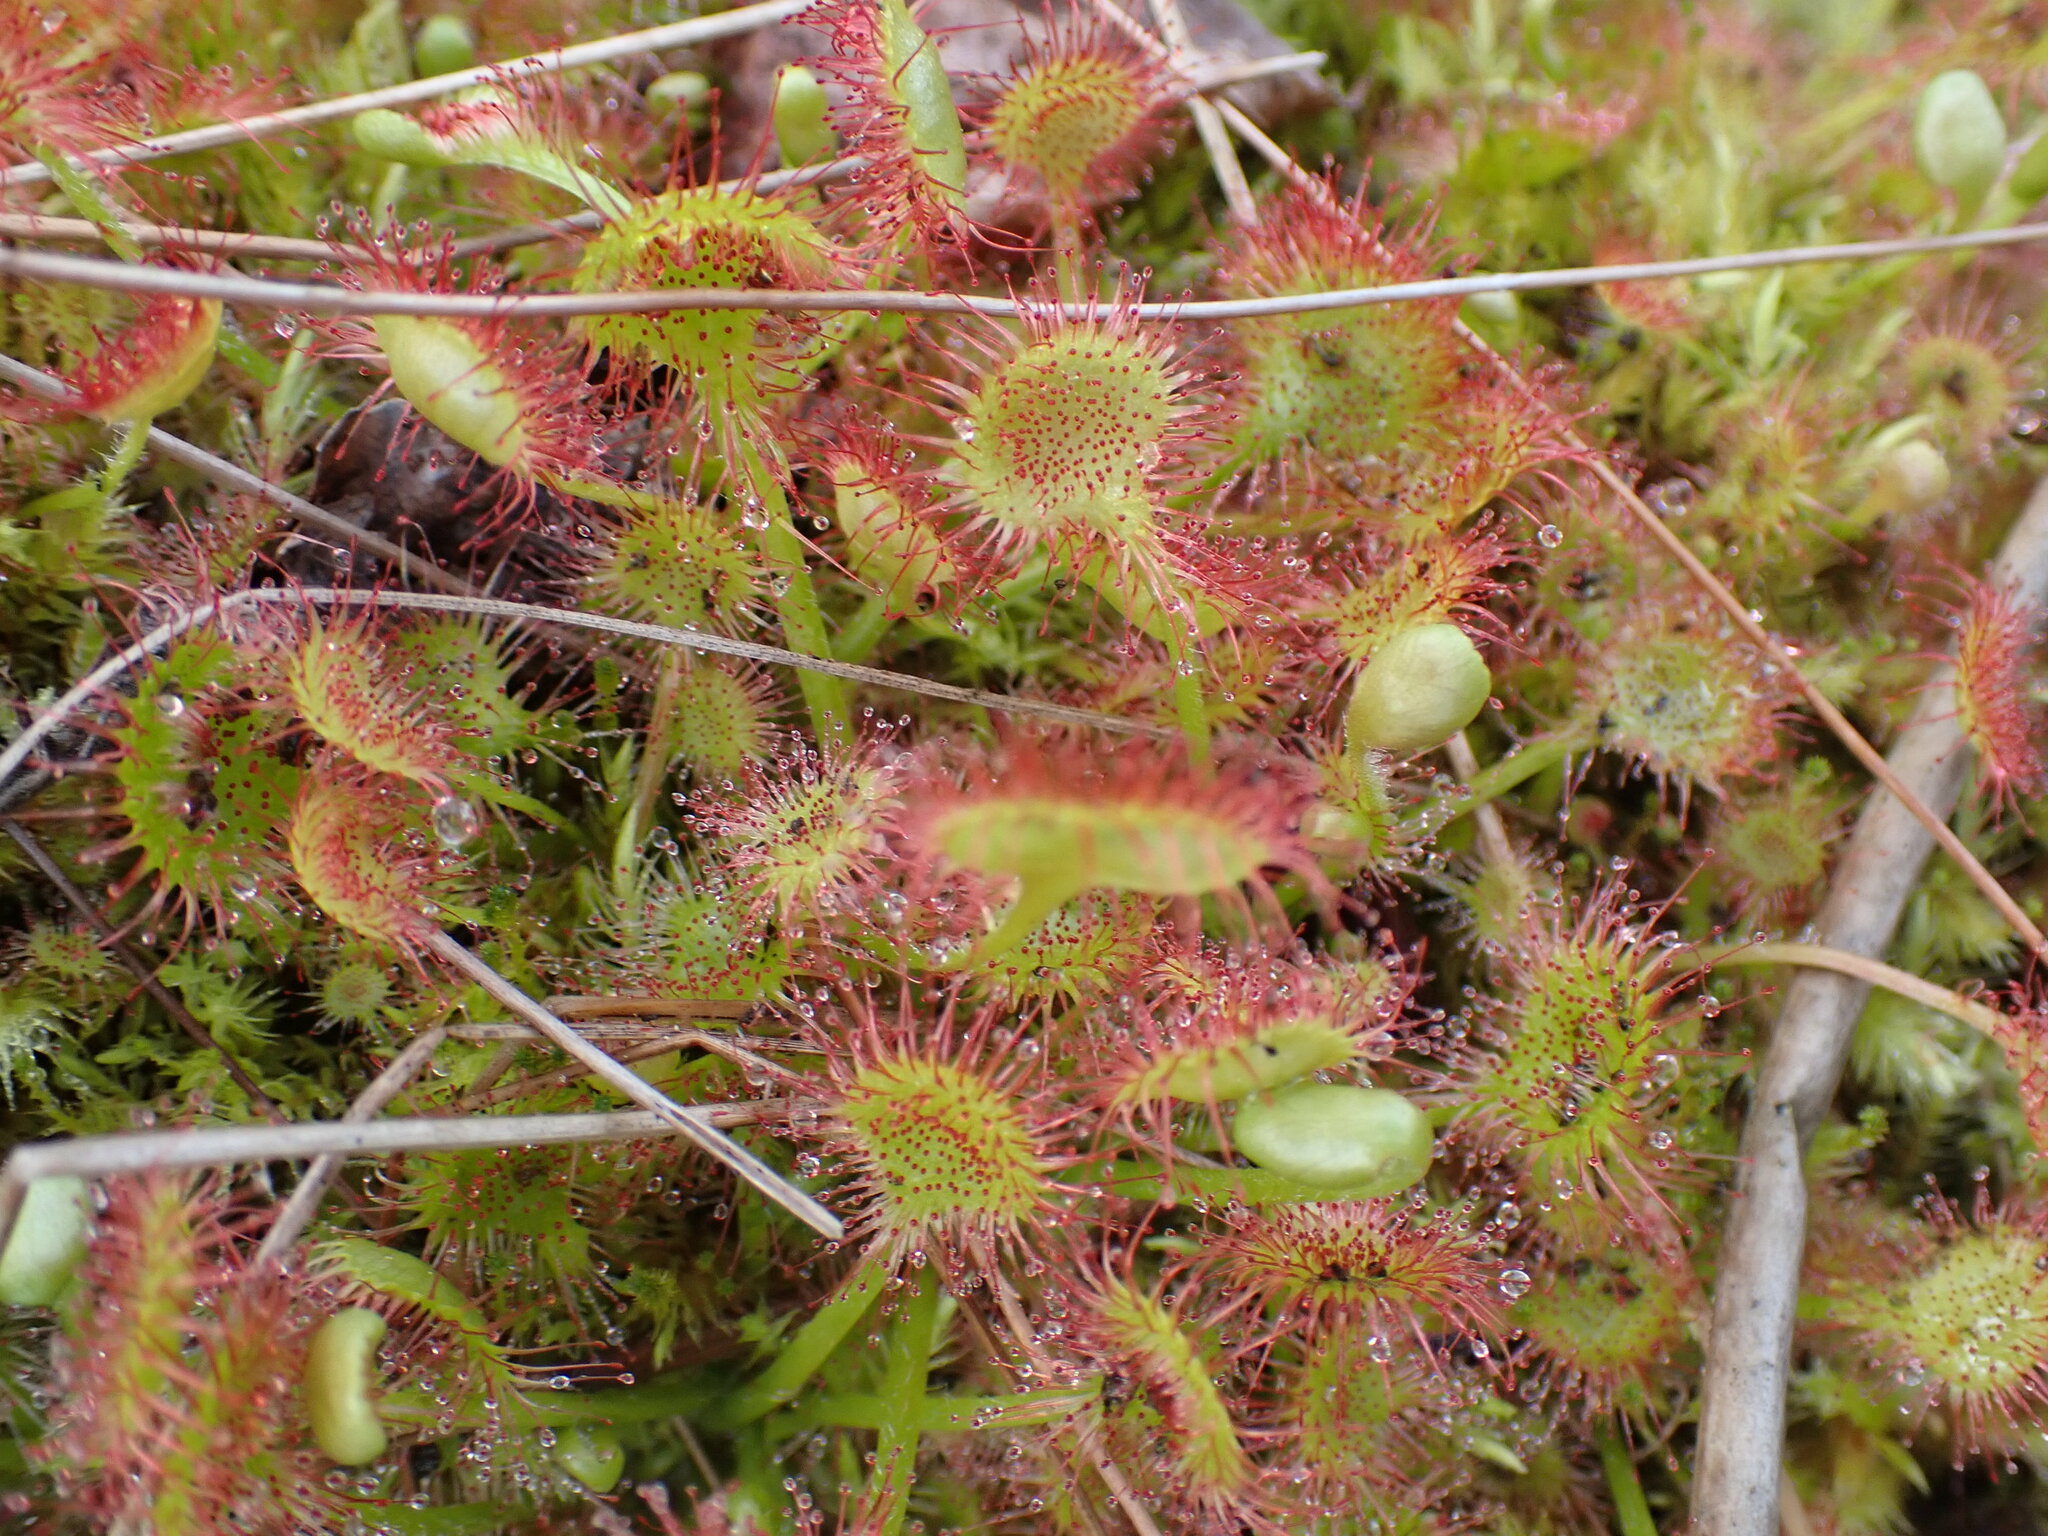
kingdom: Plantae
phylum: Tracheophyta
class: Magnoliopsida
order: Caryophyllales
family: Droseraceae
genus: Drosera
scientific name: Drosera rotundifolia
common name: Round-leaved sundew
